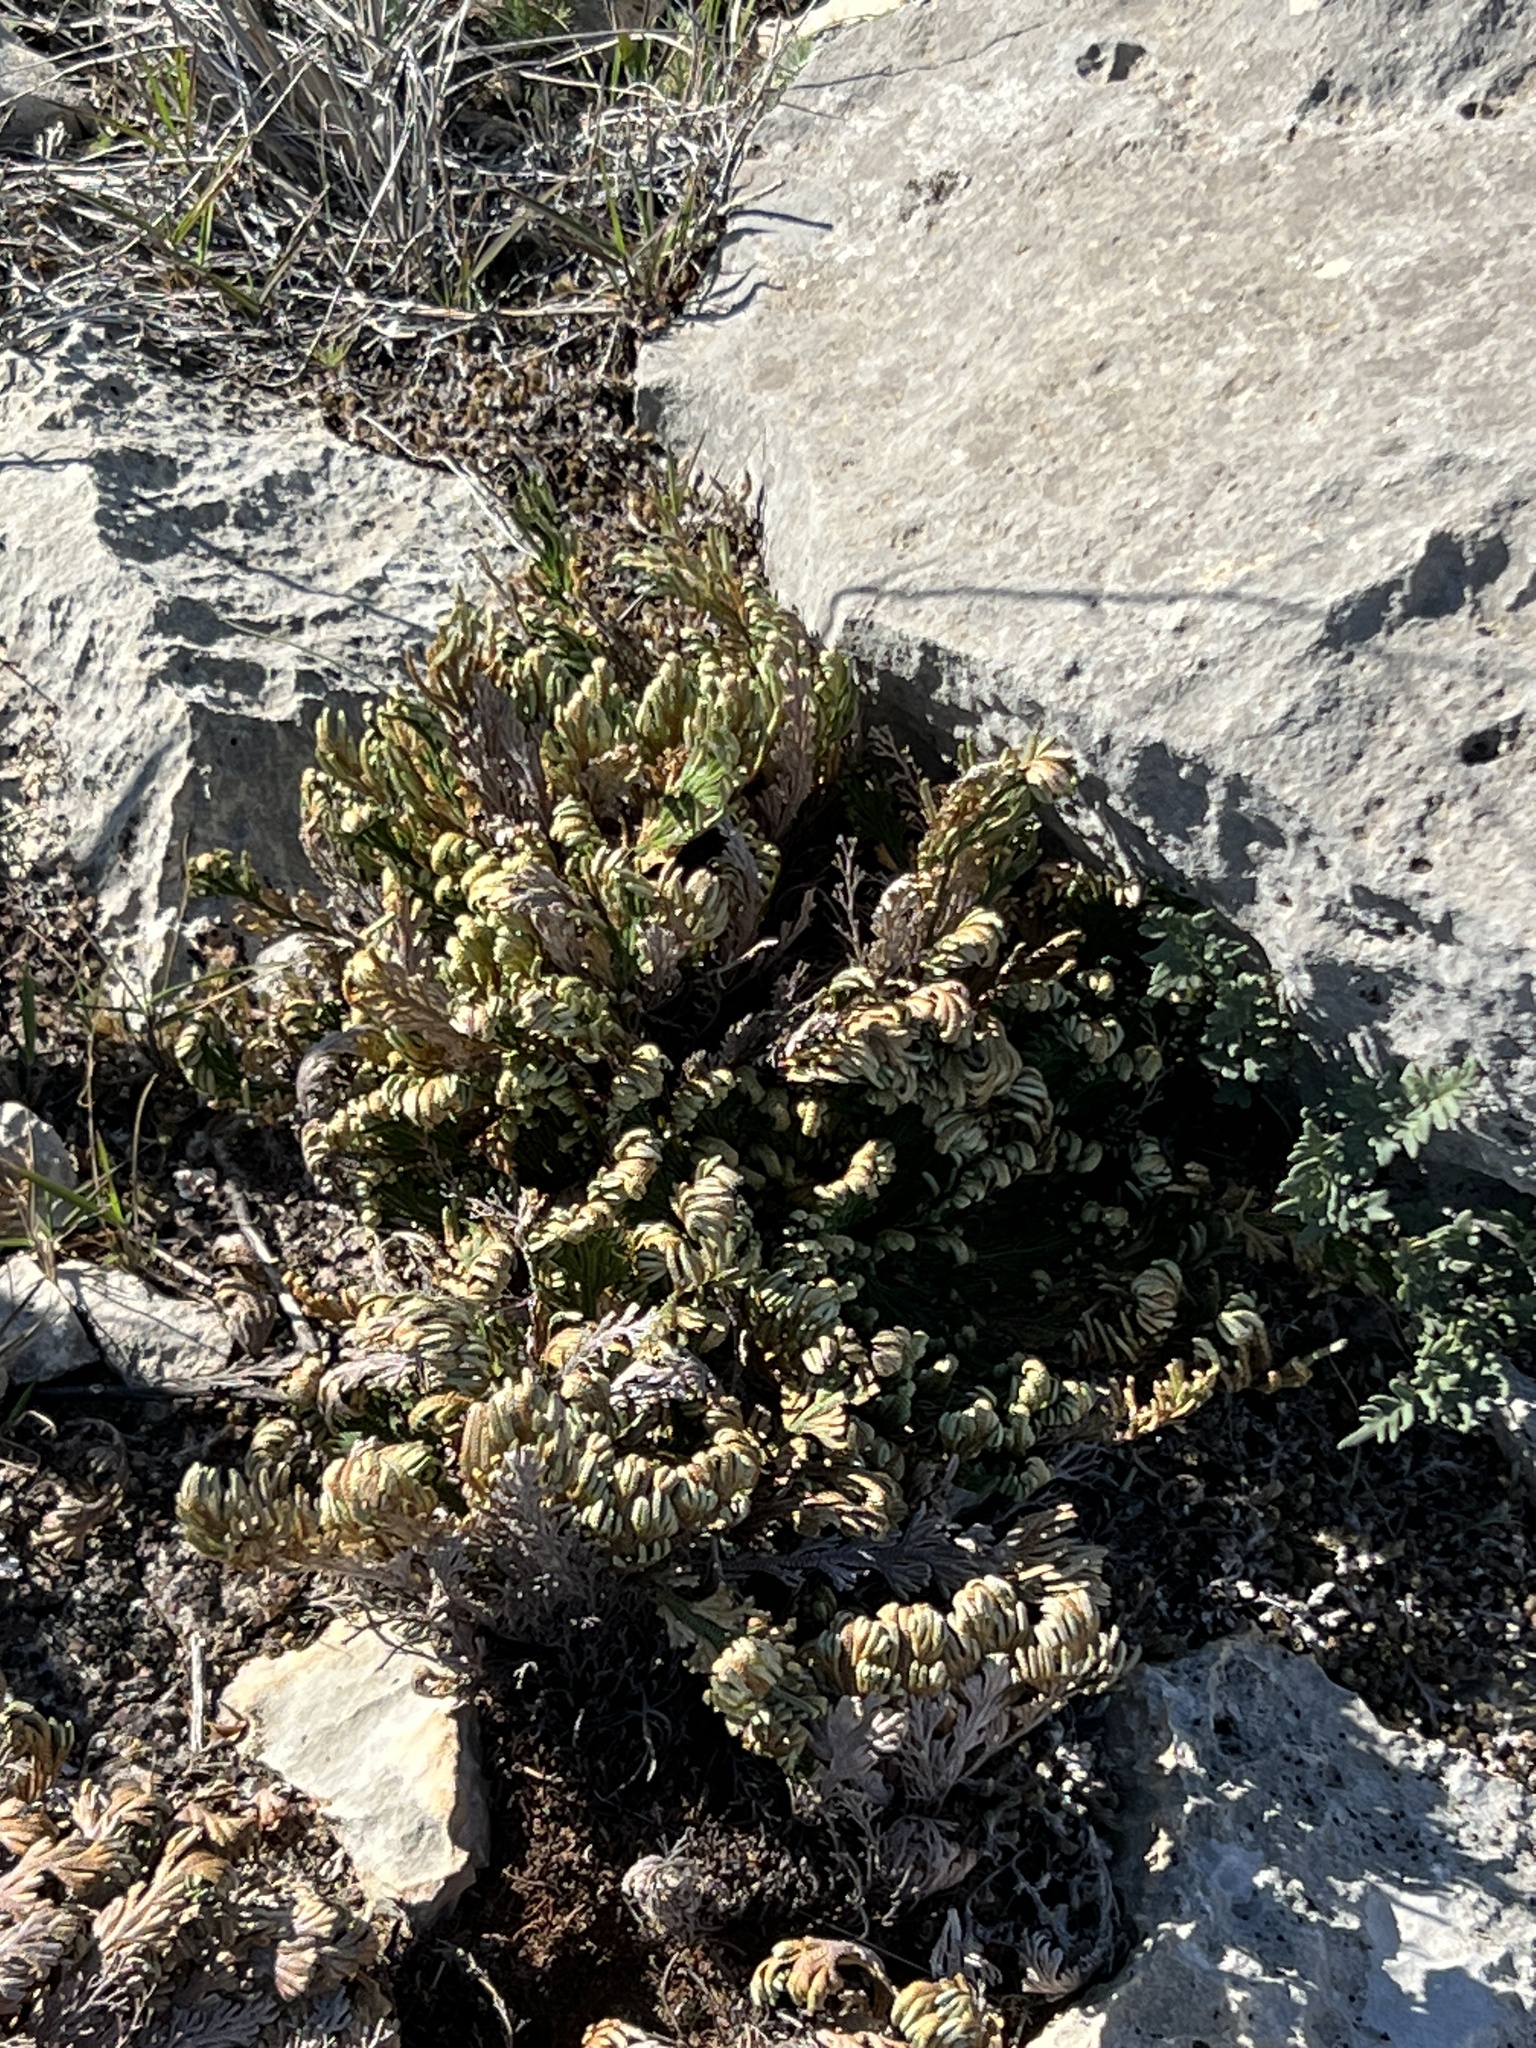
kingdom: Plantae
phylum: Tracheophyta
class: Lycopodiopsida
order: Selaginellales
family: Selaginellaceae
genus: Selaginella
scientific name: Selaginella lepidophylla
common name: Rose-of-jericho
